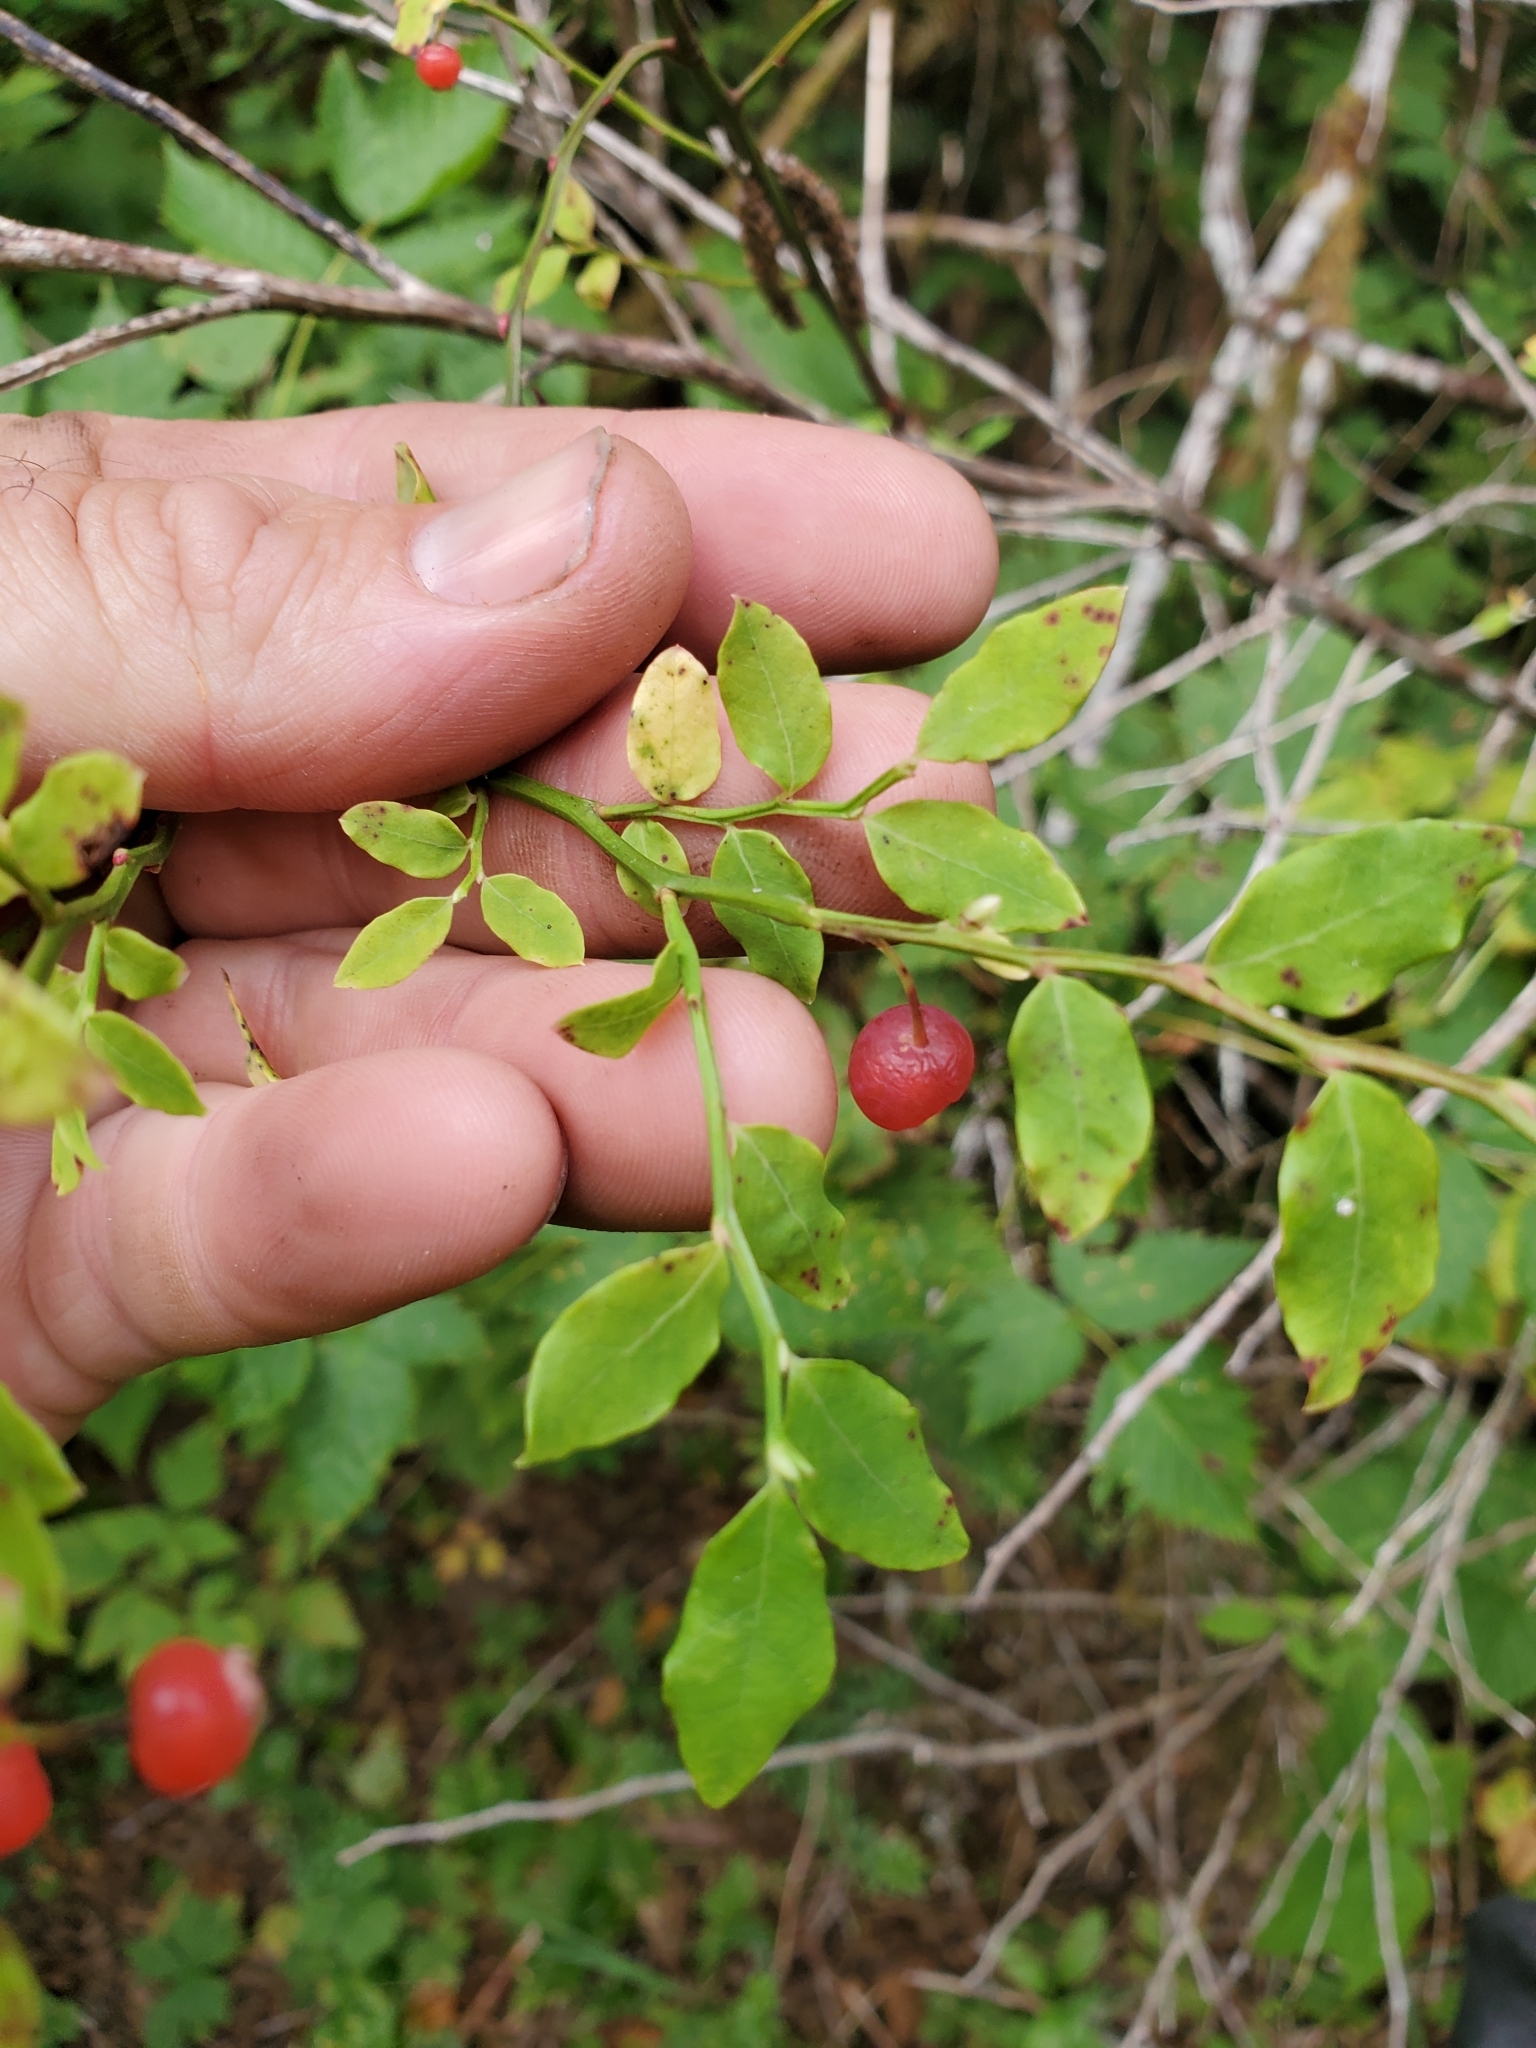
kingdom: Plantae
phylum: Tracheophyta
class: Magnoliopsida
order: Ericales
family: Ericaceae
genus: Vaccinium
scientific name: Vaccinium parvifolium
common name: Red-huckleberry
